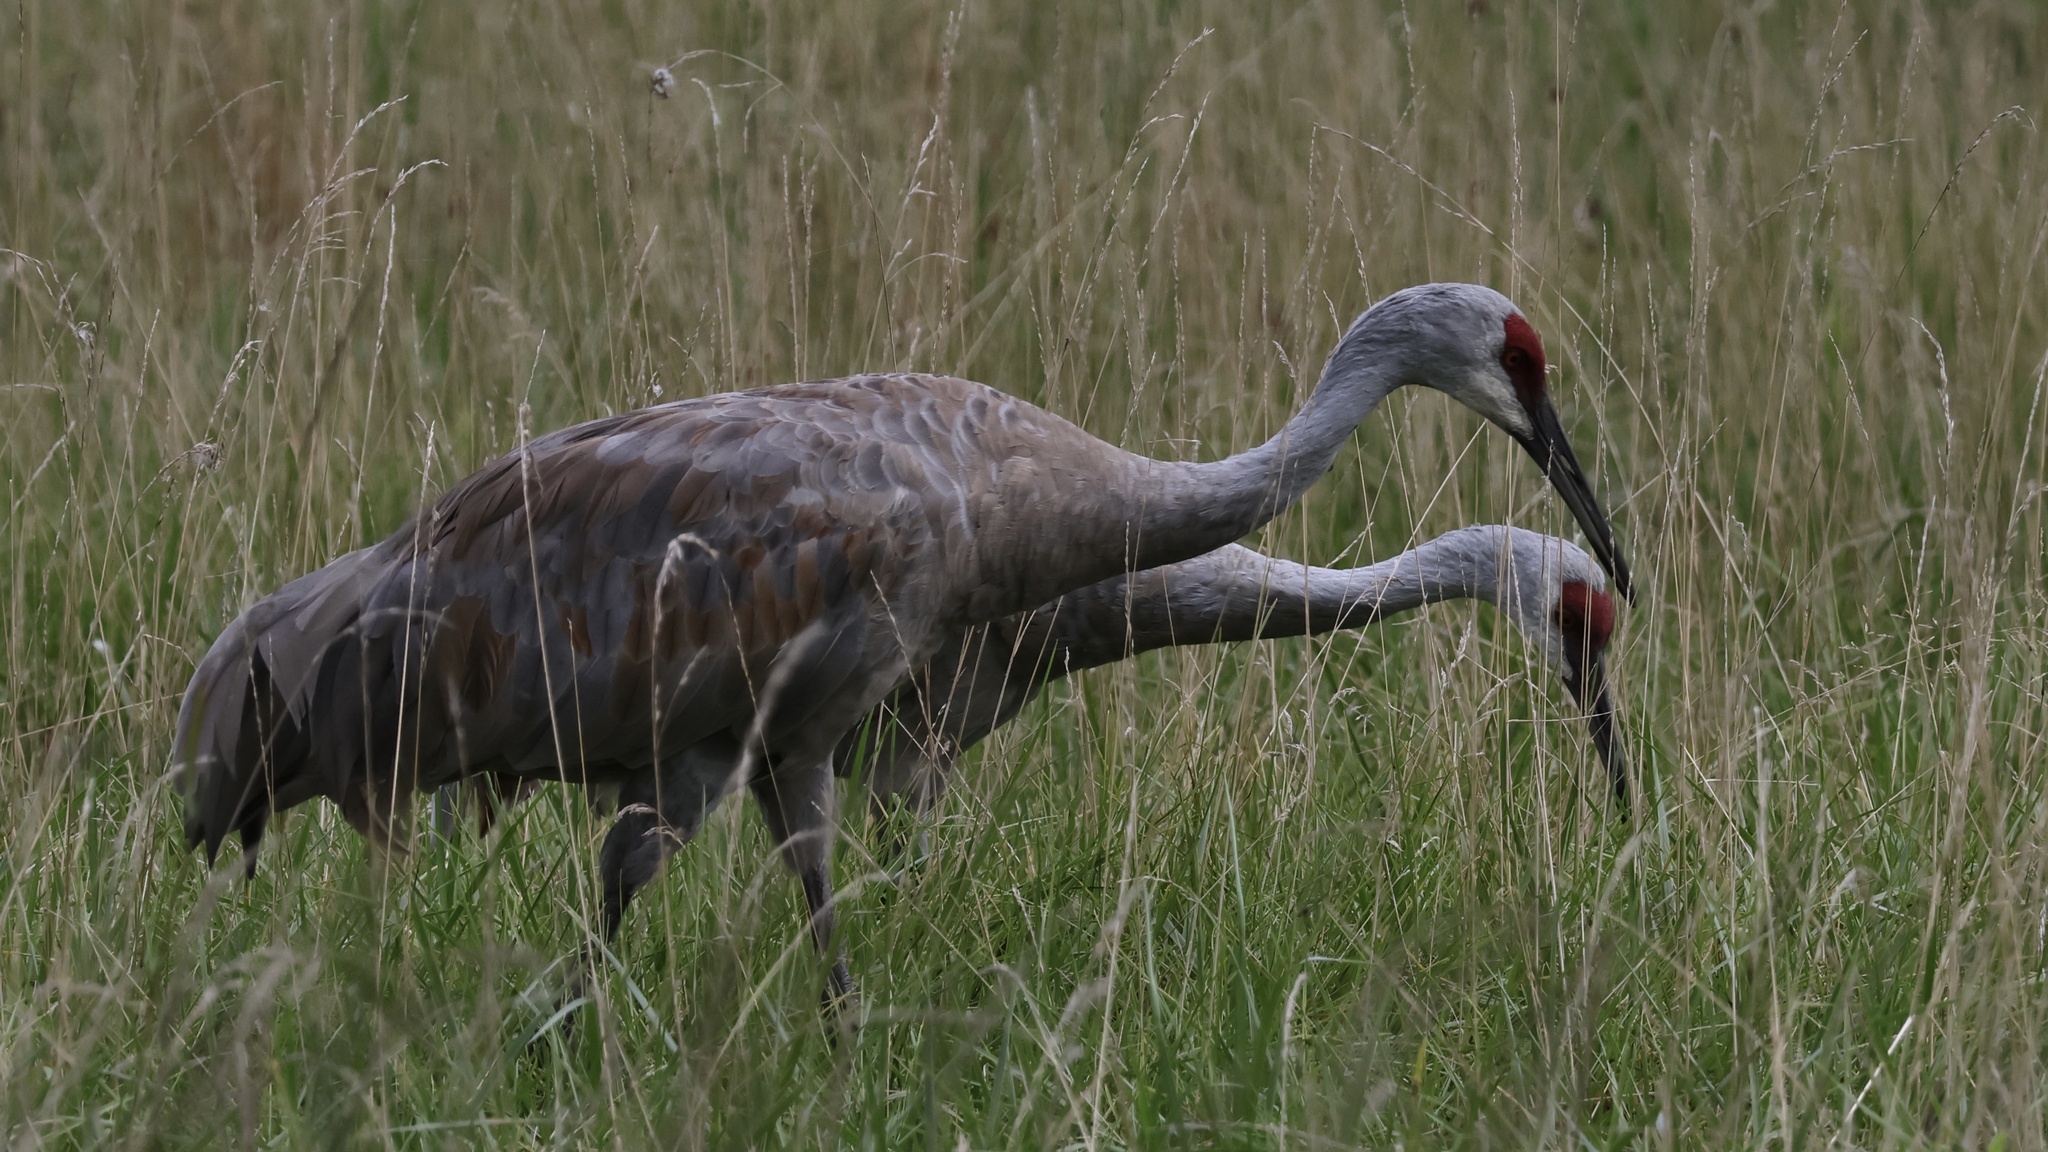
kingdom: Animalia
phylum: Chordata
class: Aves
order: Gruiformes
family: Gruidae
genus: Grus
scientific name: Grus canadensis
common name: Sandhill crane
